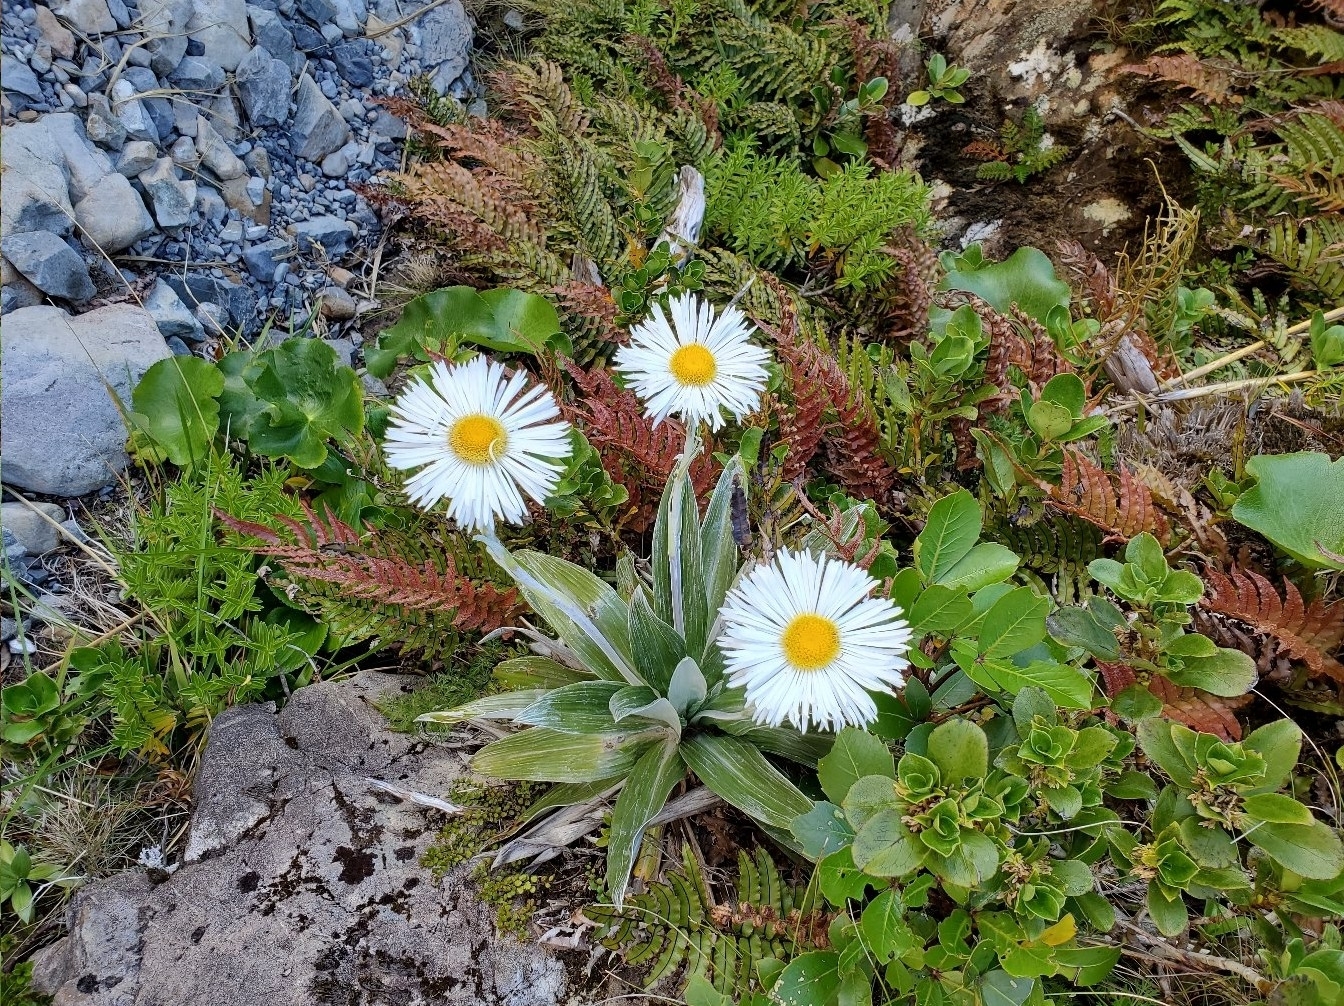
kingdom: Plantae
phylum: Tracheophyta
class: Magnoliopsida
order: Asterales
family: Asteraceae
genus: Celmisia
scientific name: Celmisia semicordata
